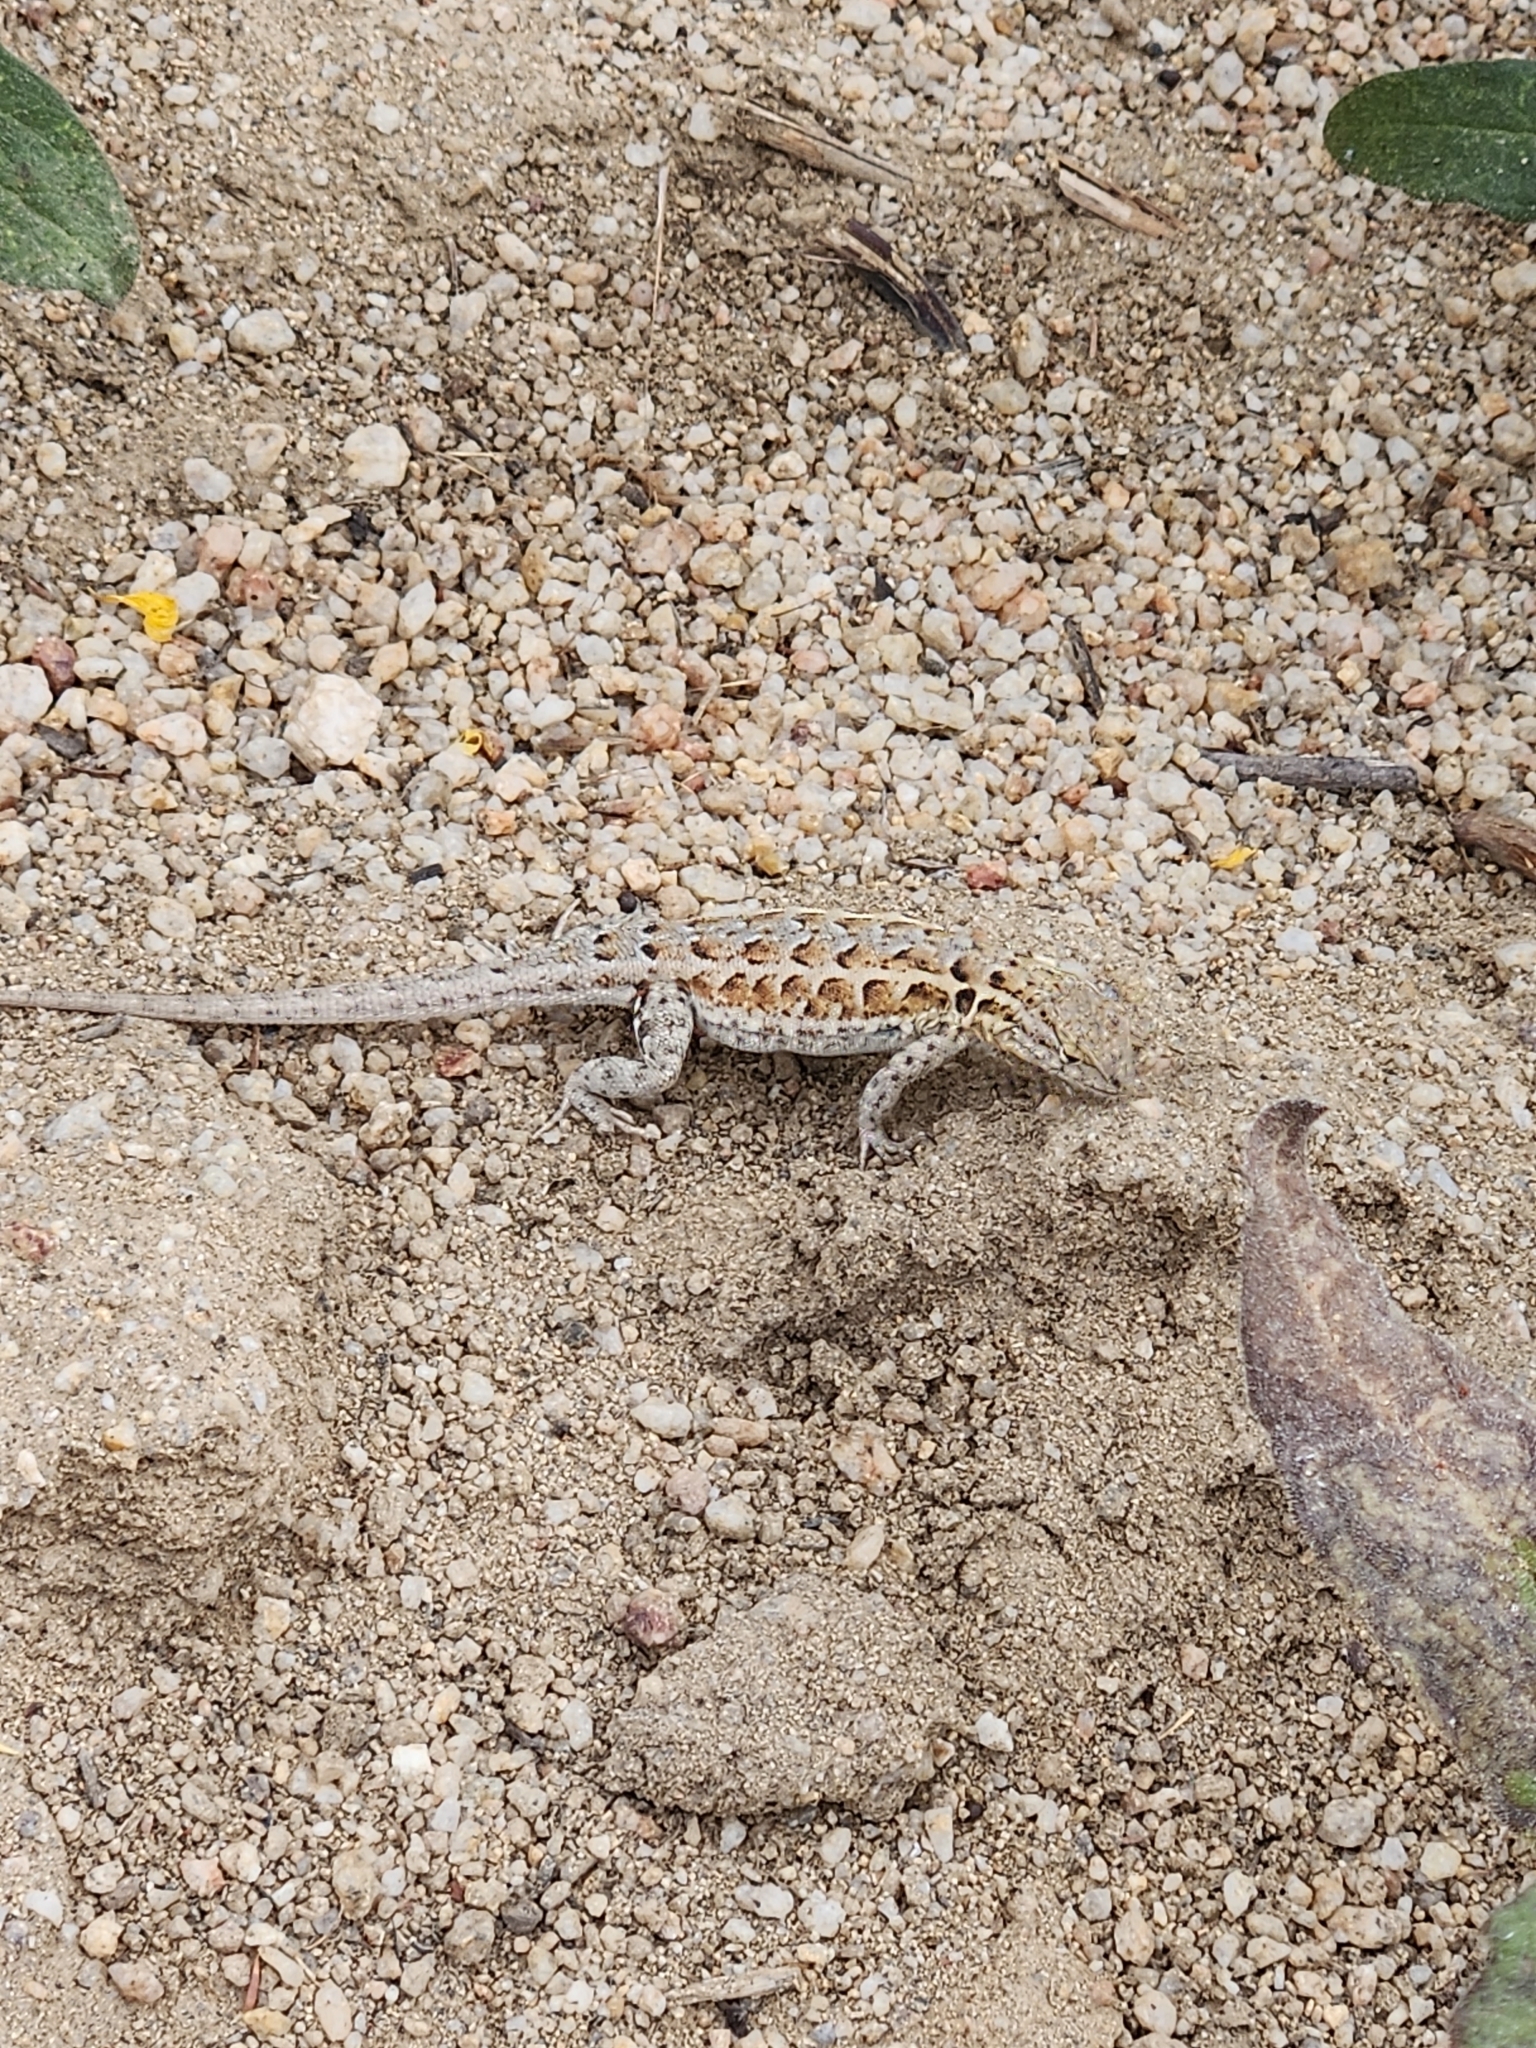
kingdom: Animalia
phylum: Chordata
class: Squamata
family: Phrynosomatidae
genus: Uta
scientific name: Uta stansburiana
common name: Side-blotched lizard
